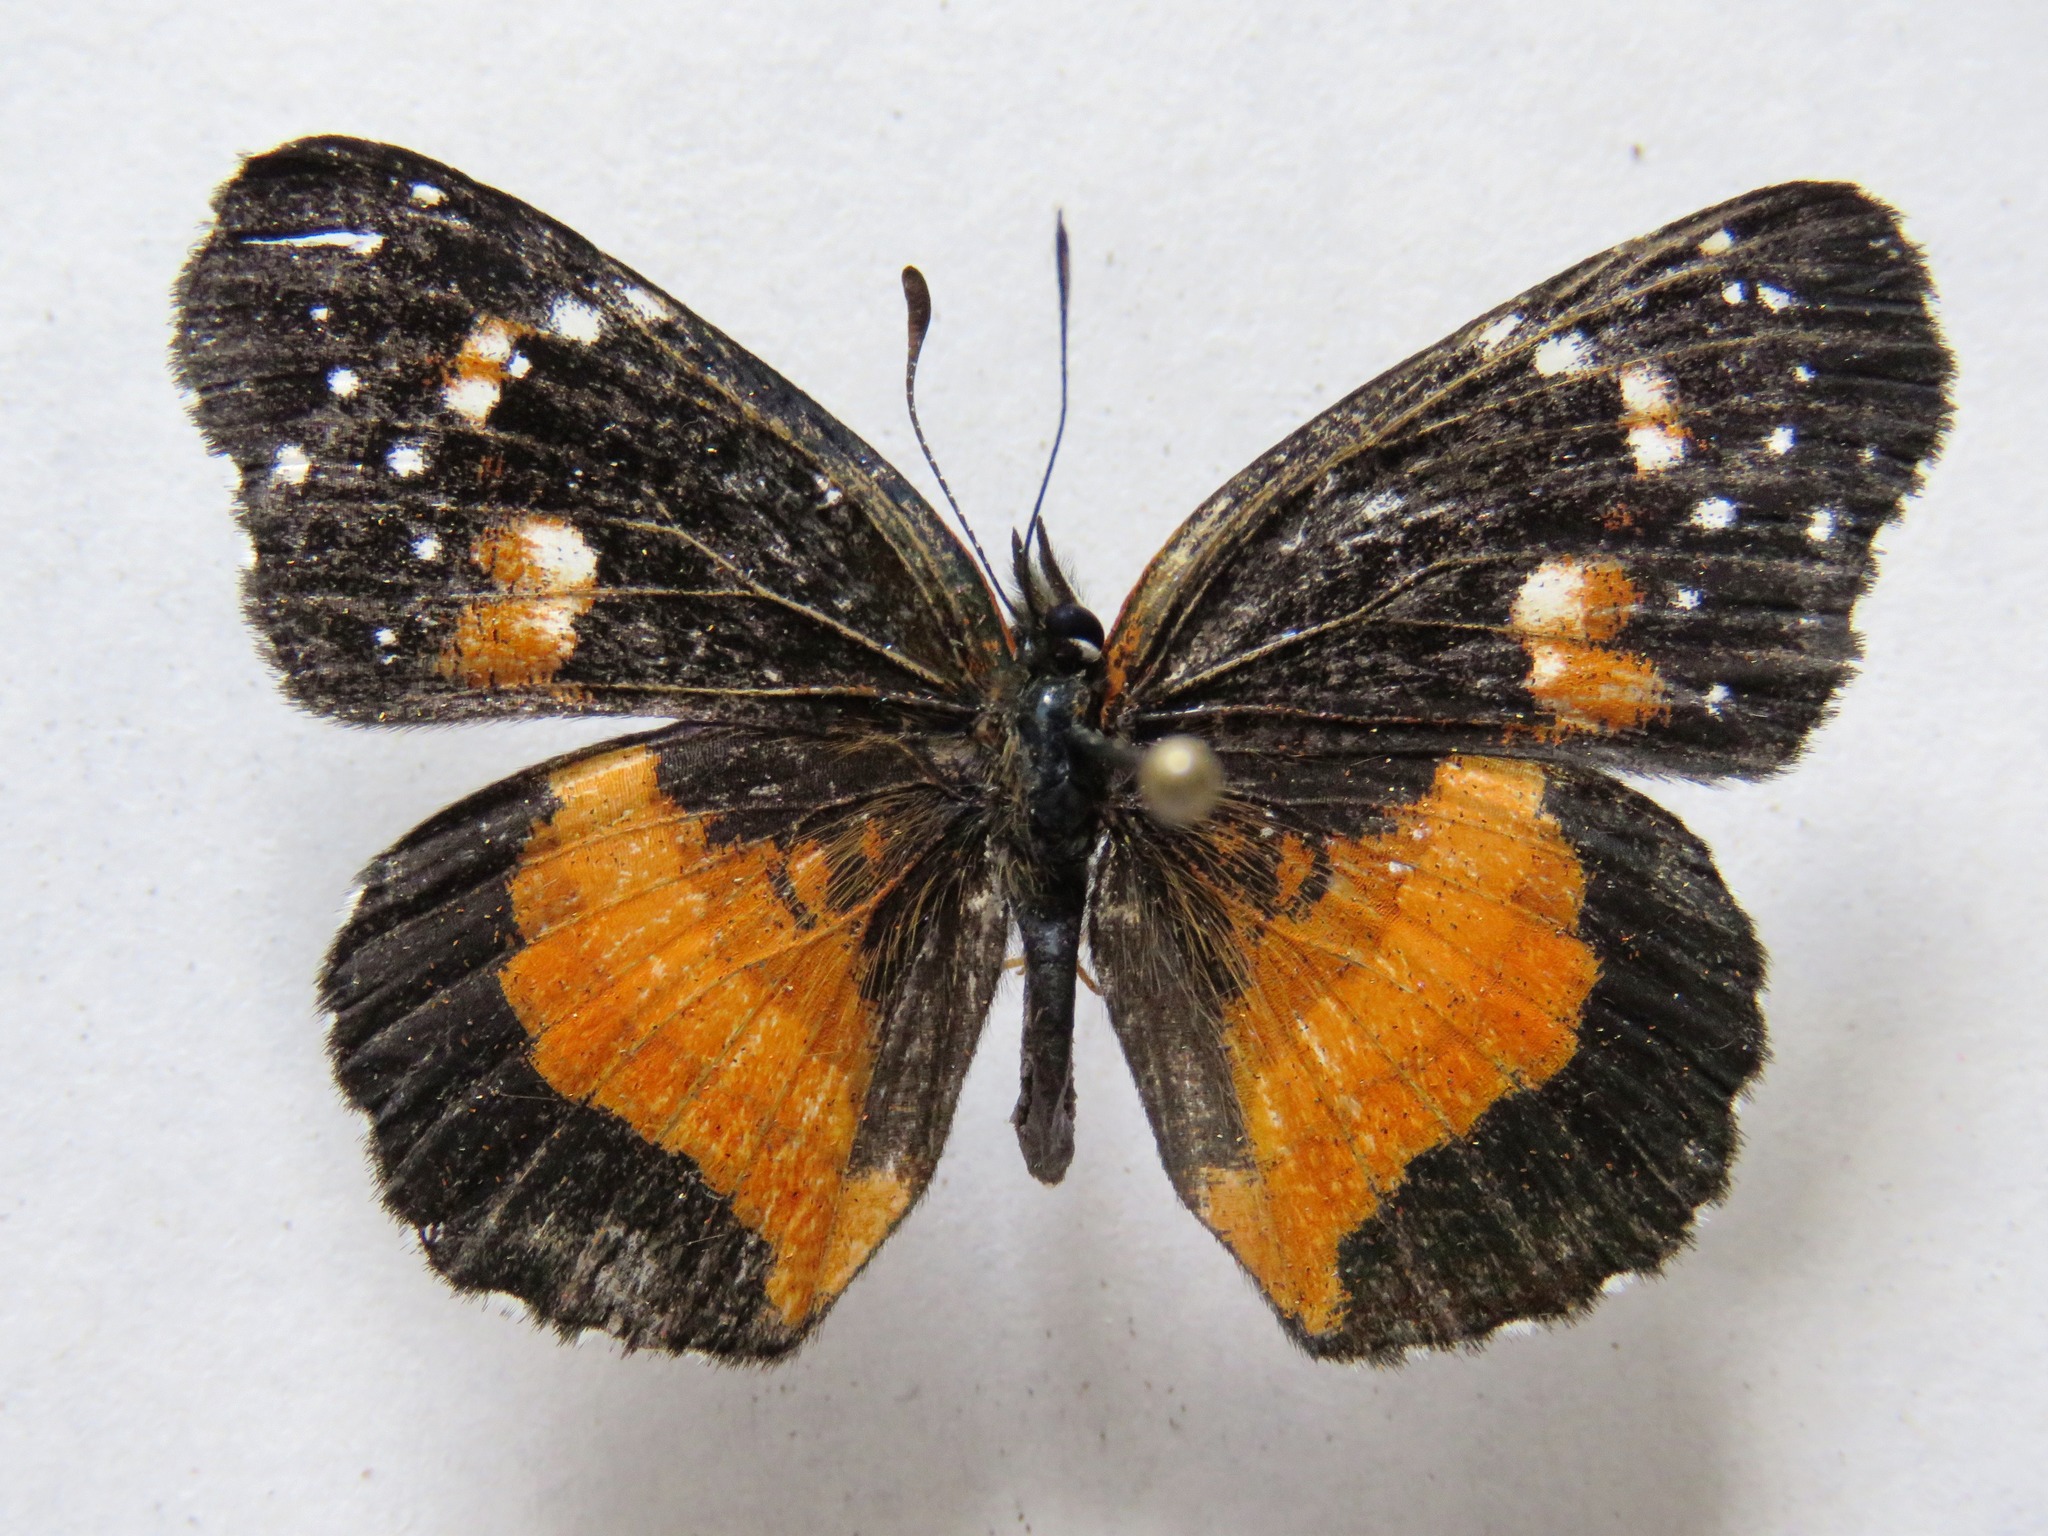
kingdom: Animalia
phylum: Arthropoda
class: Insecta
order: Lepidoptera
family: Nymphalidae
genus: Chlosyne
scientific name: Chlosyne lacinia
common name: Bordered patch
